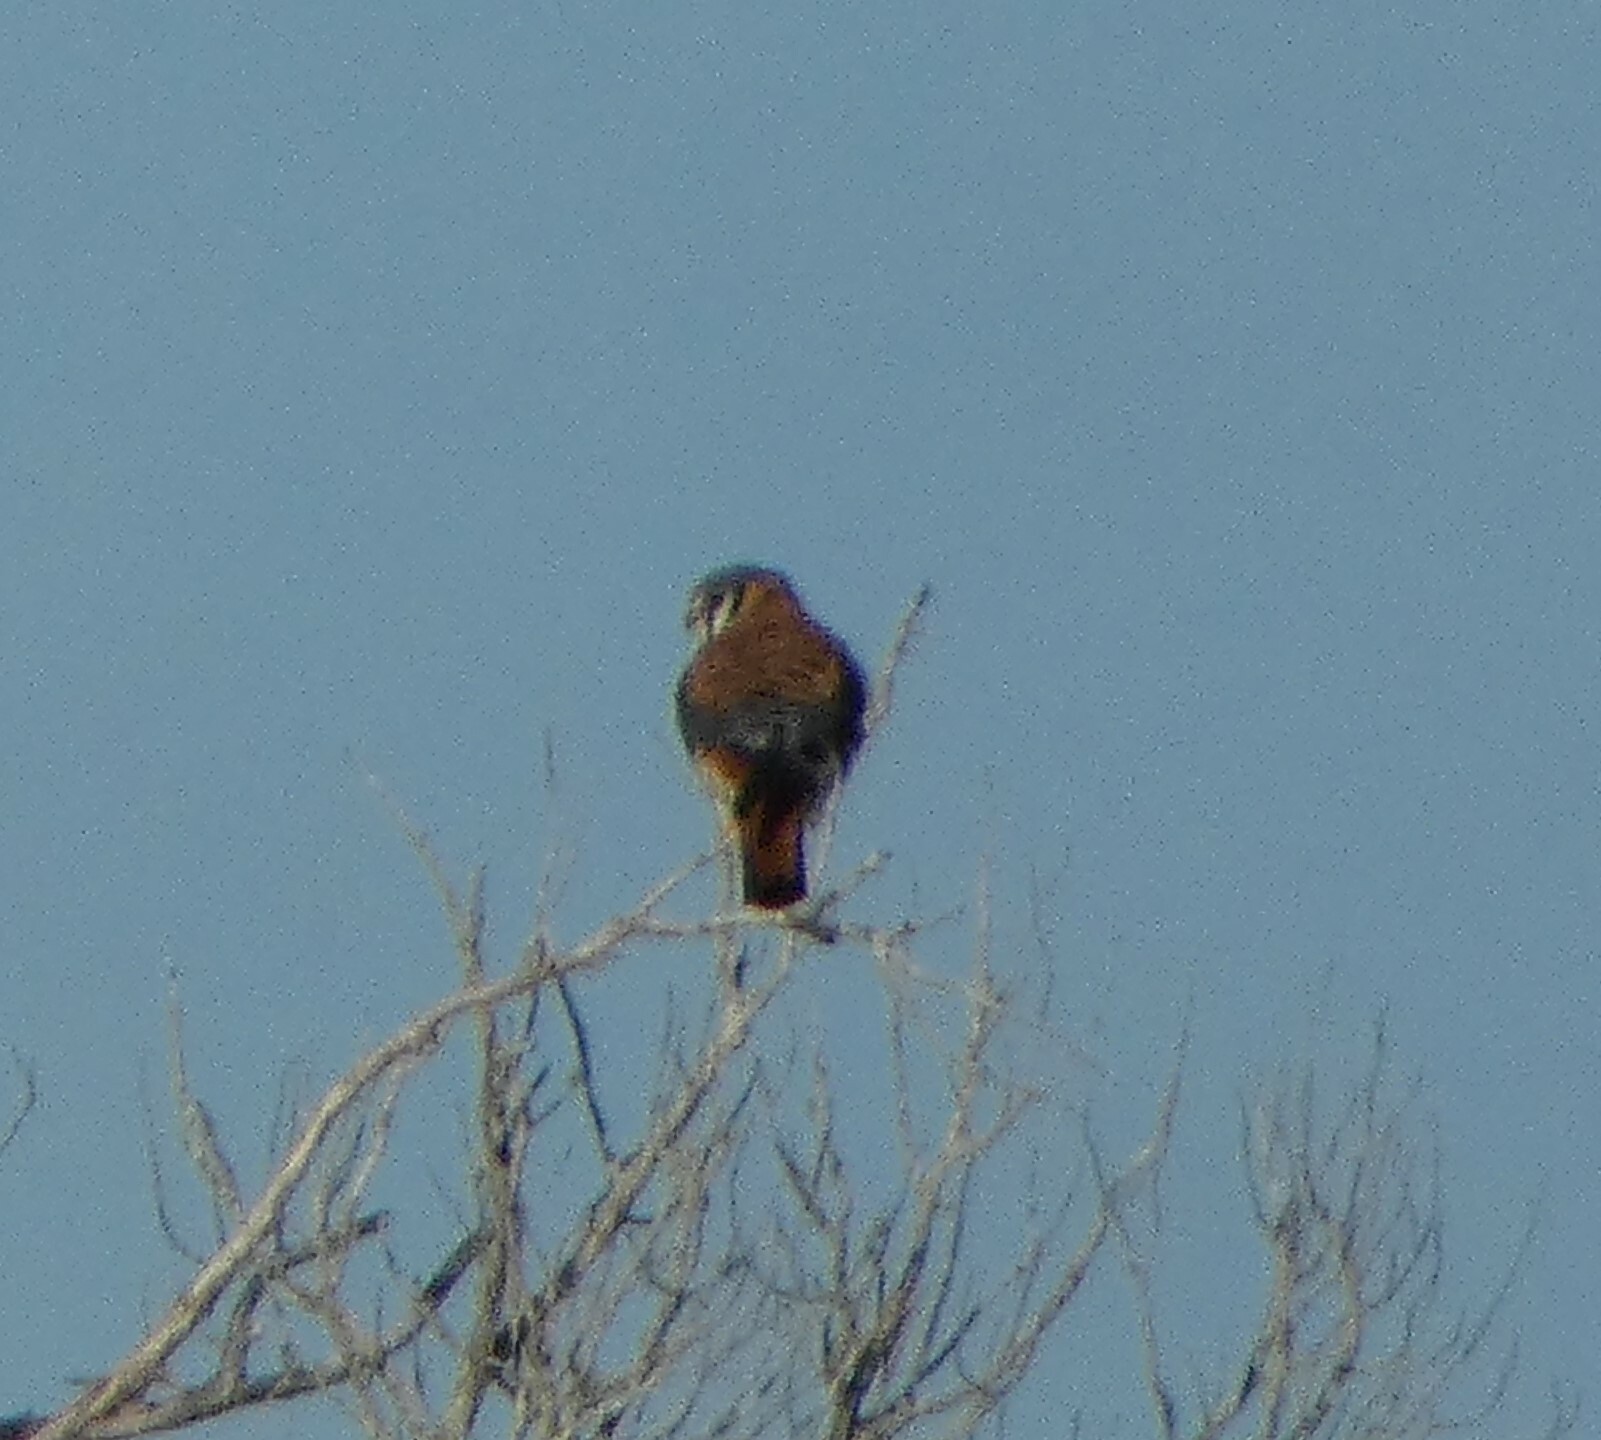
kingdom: Animalia
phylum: Chordata
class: Aves
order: Falconiformes
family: Falconidae
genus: Falco
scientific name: Falco sparverius
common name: American kestrel
